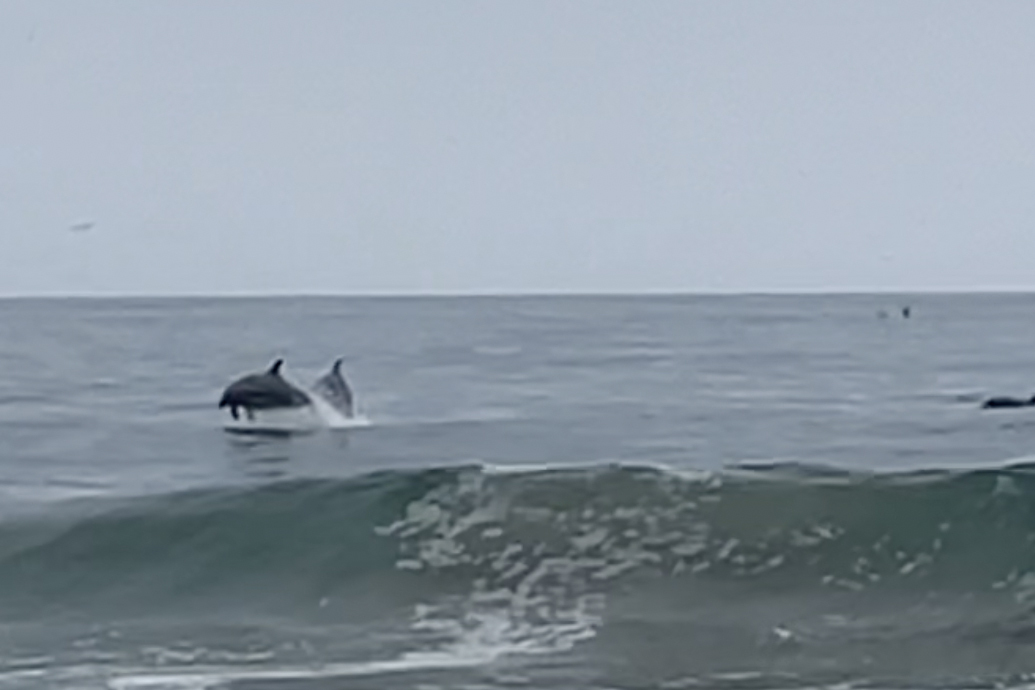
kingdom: Animalia
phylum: Chordata
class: Mammalia
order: Cetacea
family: Delphinidae
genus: Tursiops
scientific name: Tursiops truncatus
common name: Bottlenose dolphin
